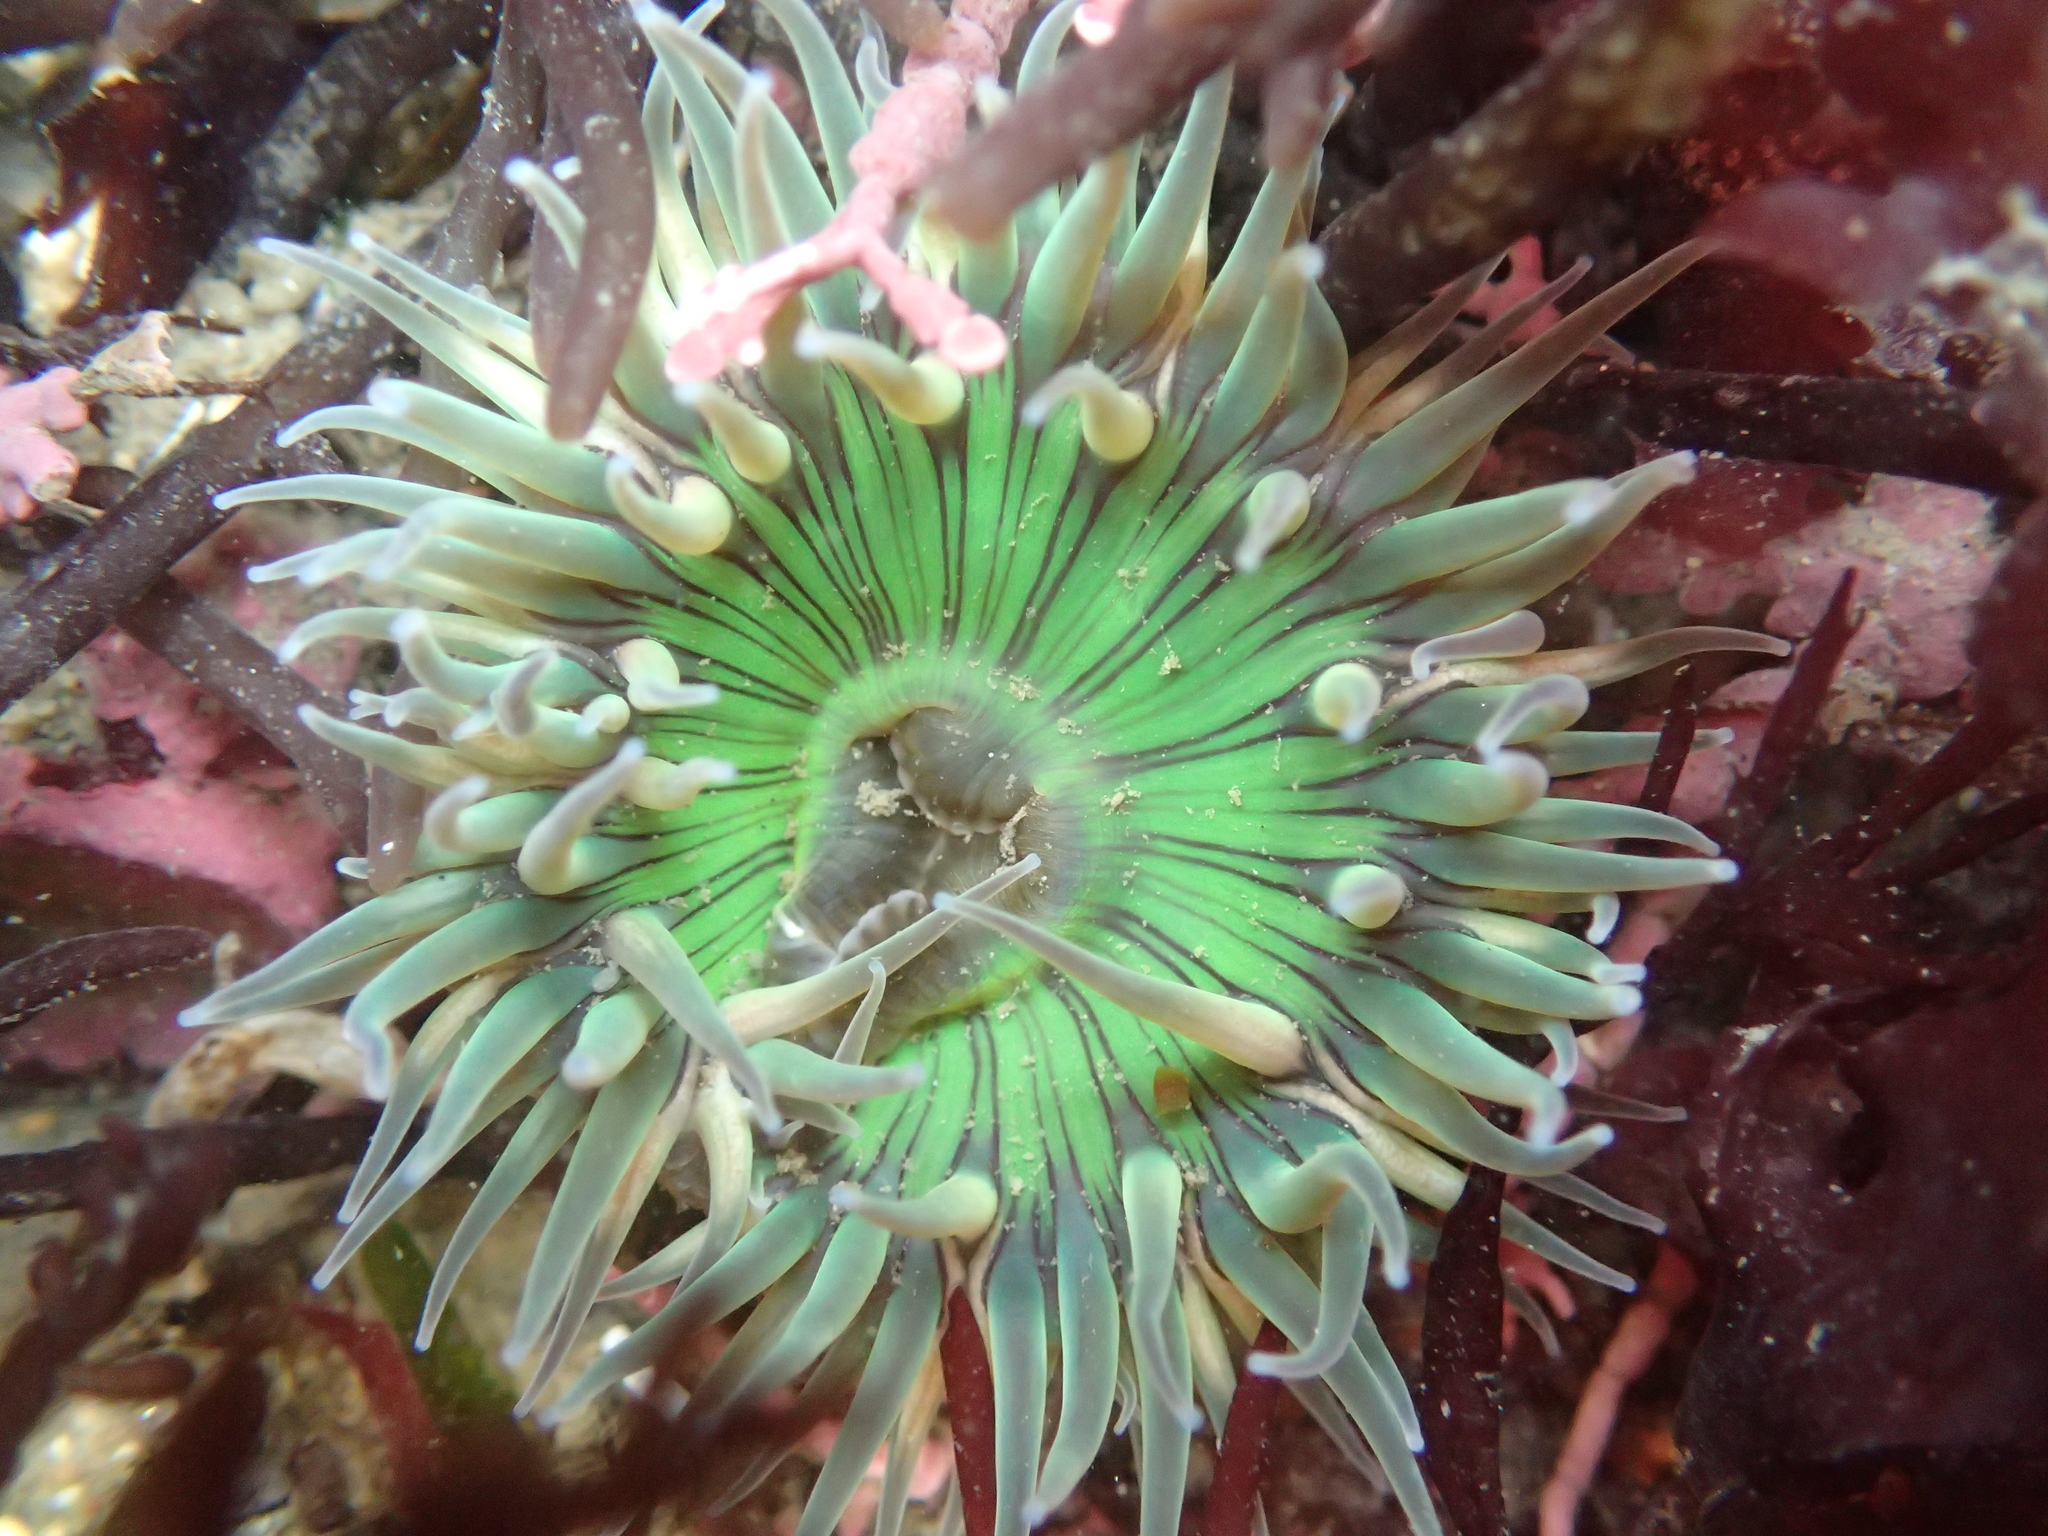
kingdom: Animalia
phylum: Cnidaria
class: Anthozoa
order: Actiniaria
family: Actiniidae
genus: Anthopleura
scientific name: Anthopleura sola
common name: Sun anemone
